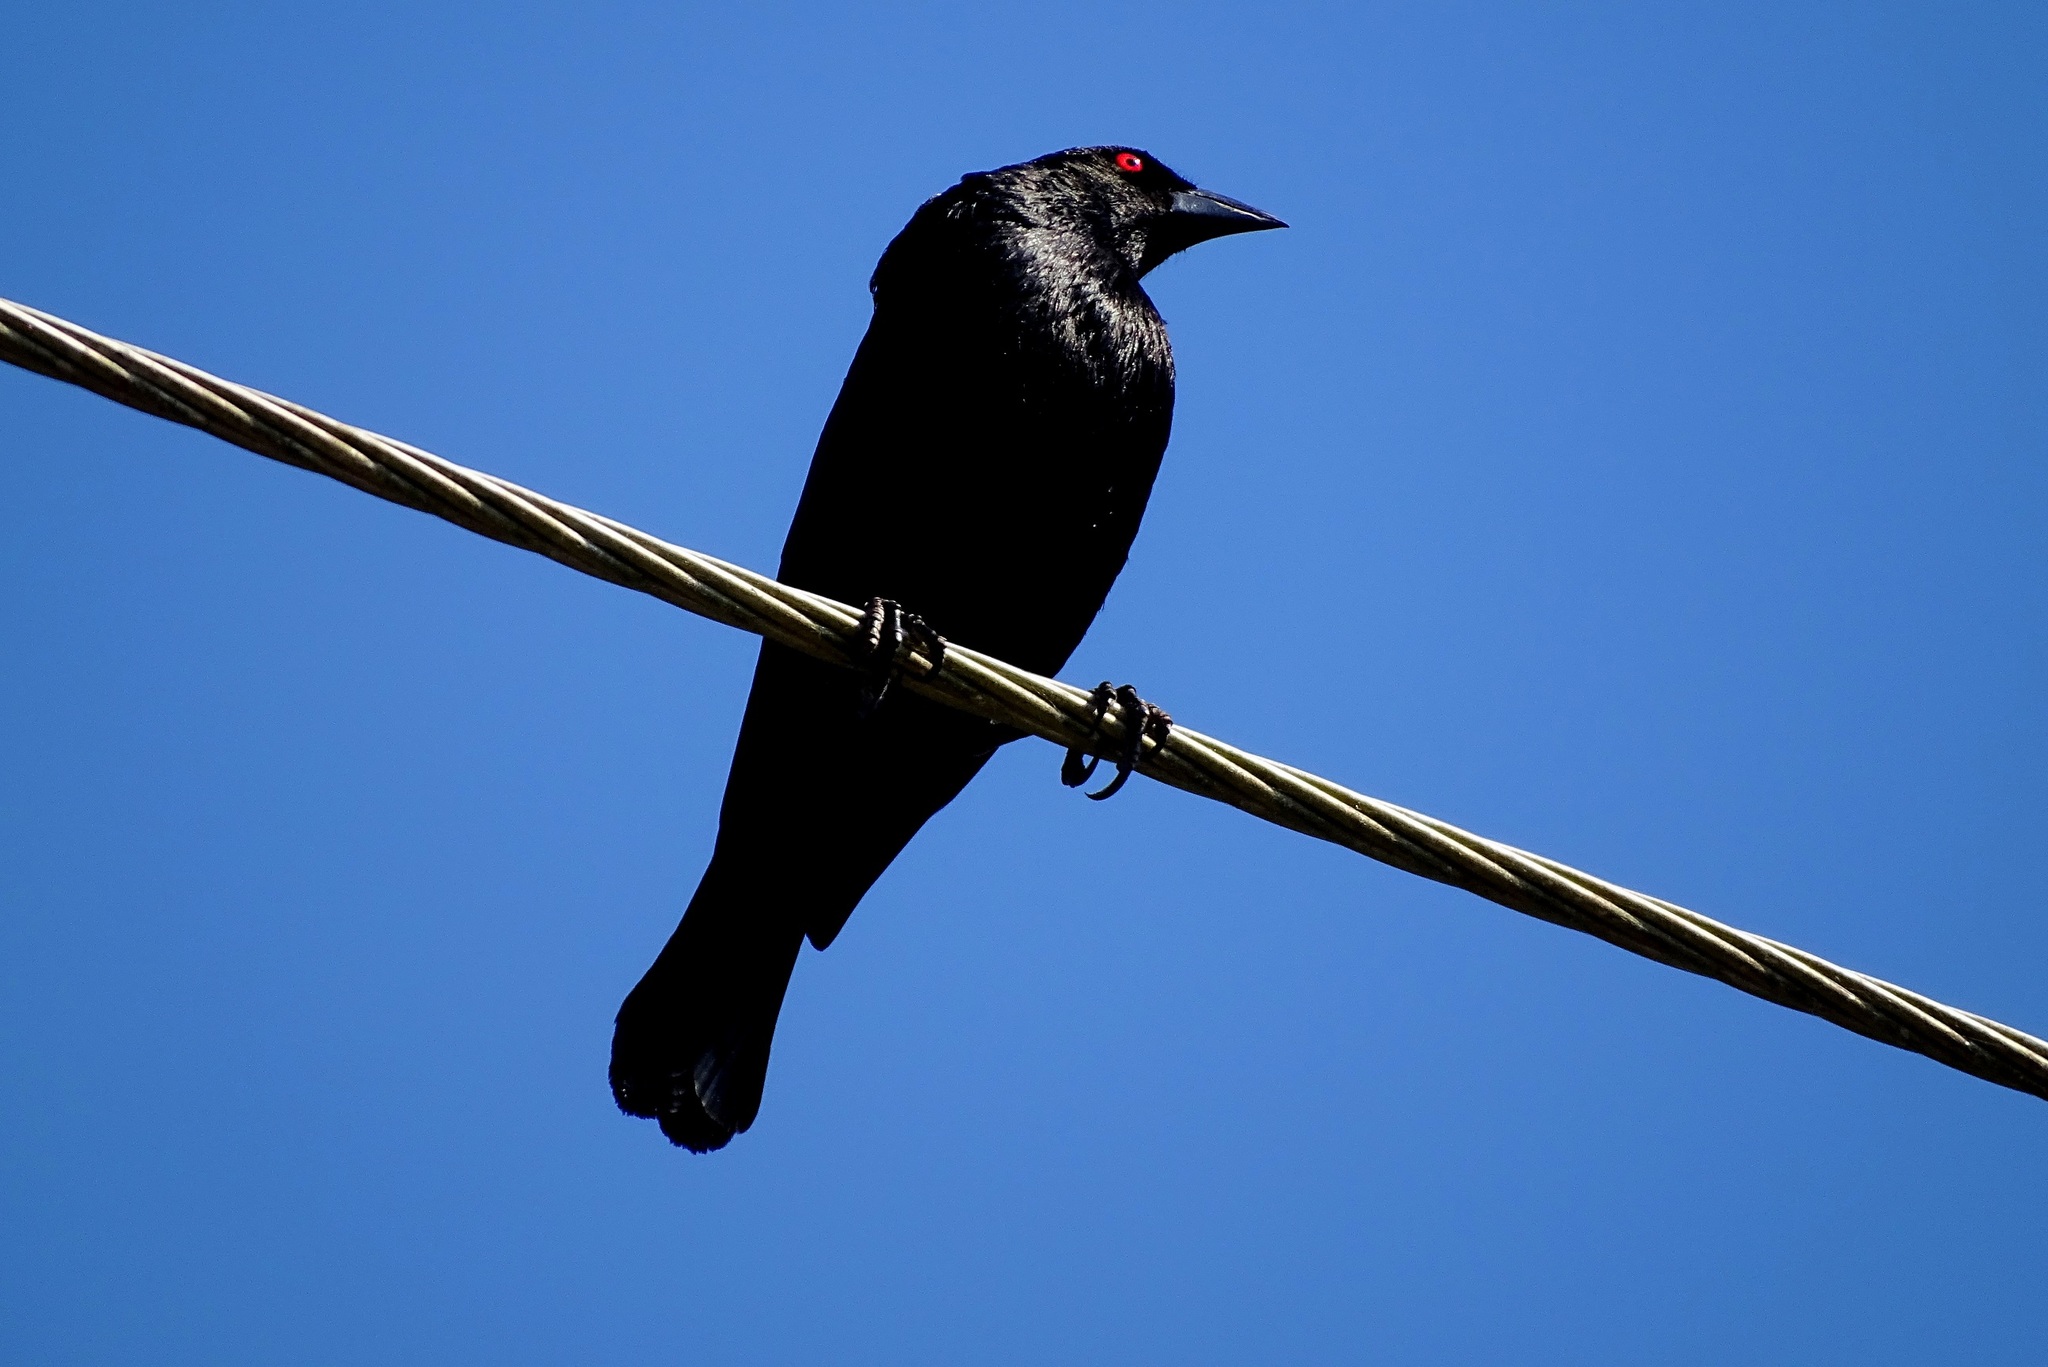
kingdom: Animalia
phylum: Chordata
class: Aves
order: Passeriformes
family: Icteridae
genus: Molothrus
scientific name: Molothrus aeneus
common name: Bronzed cowbird
